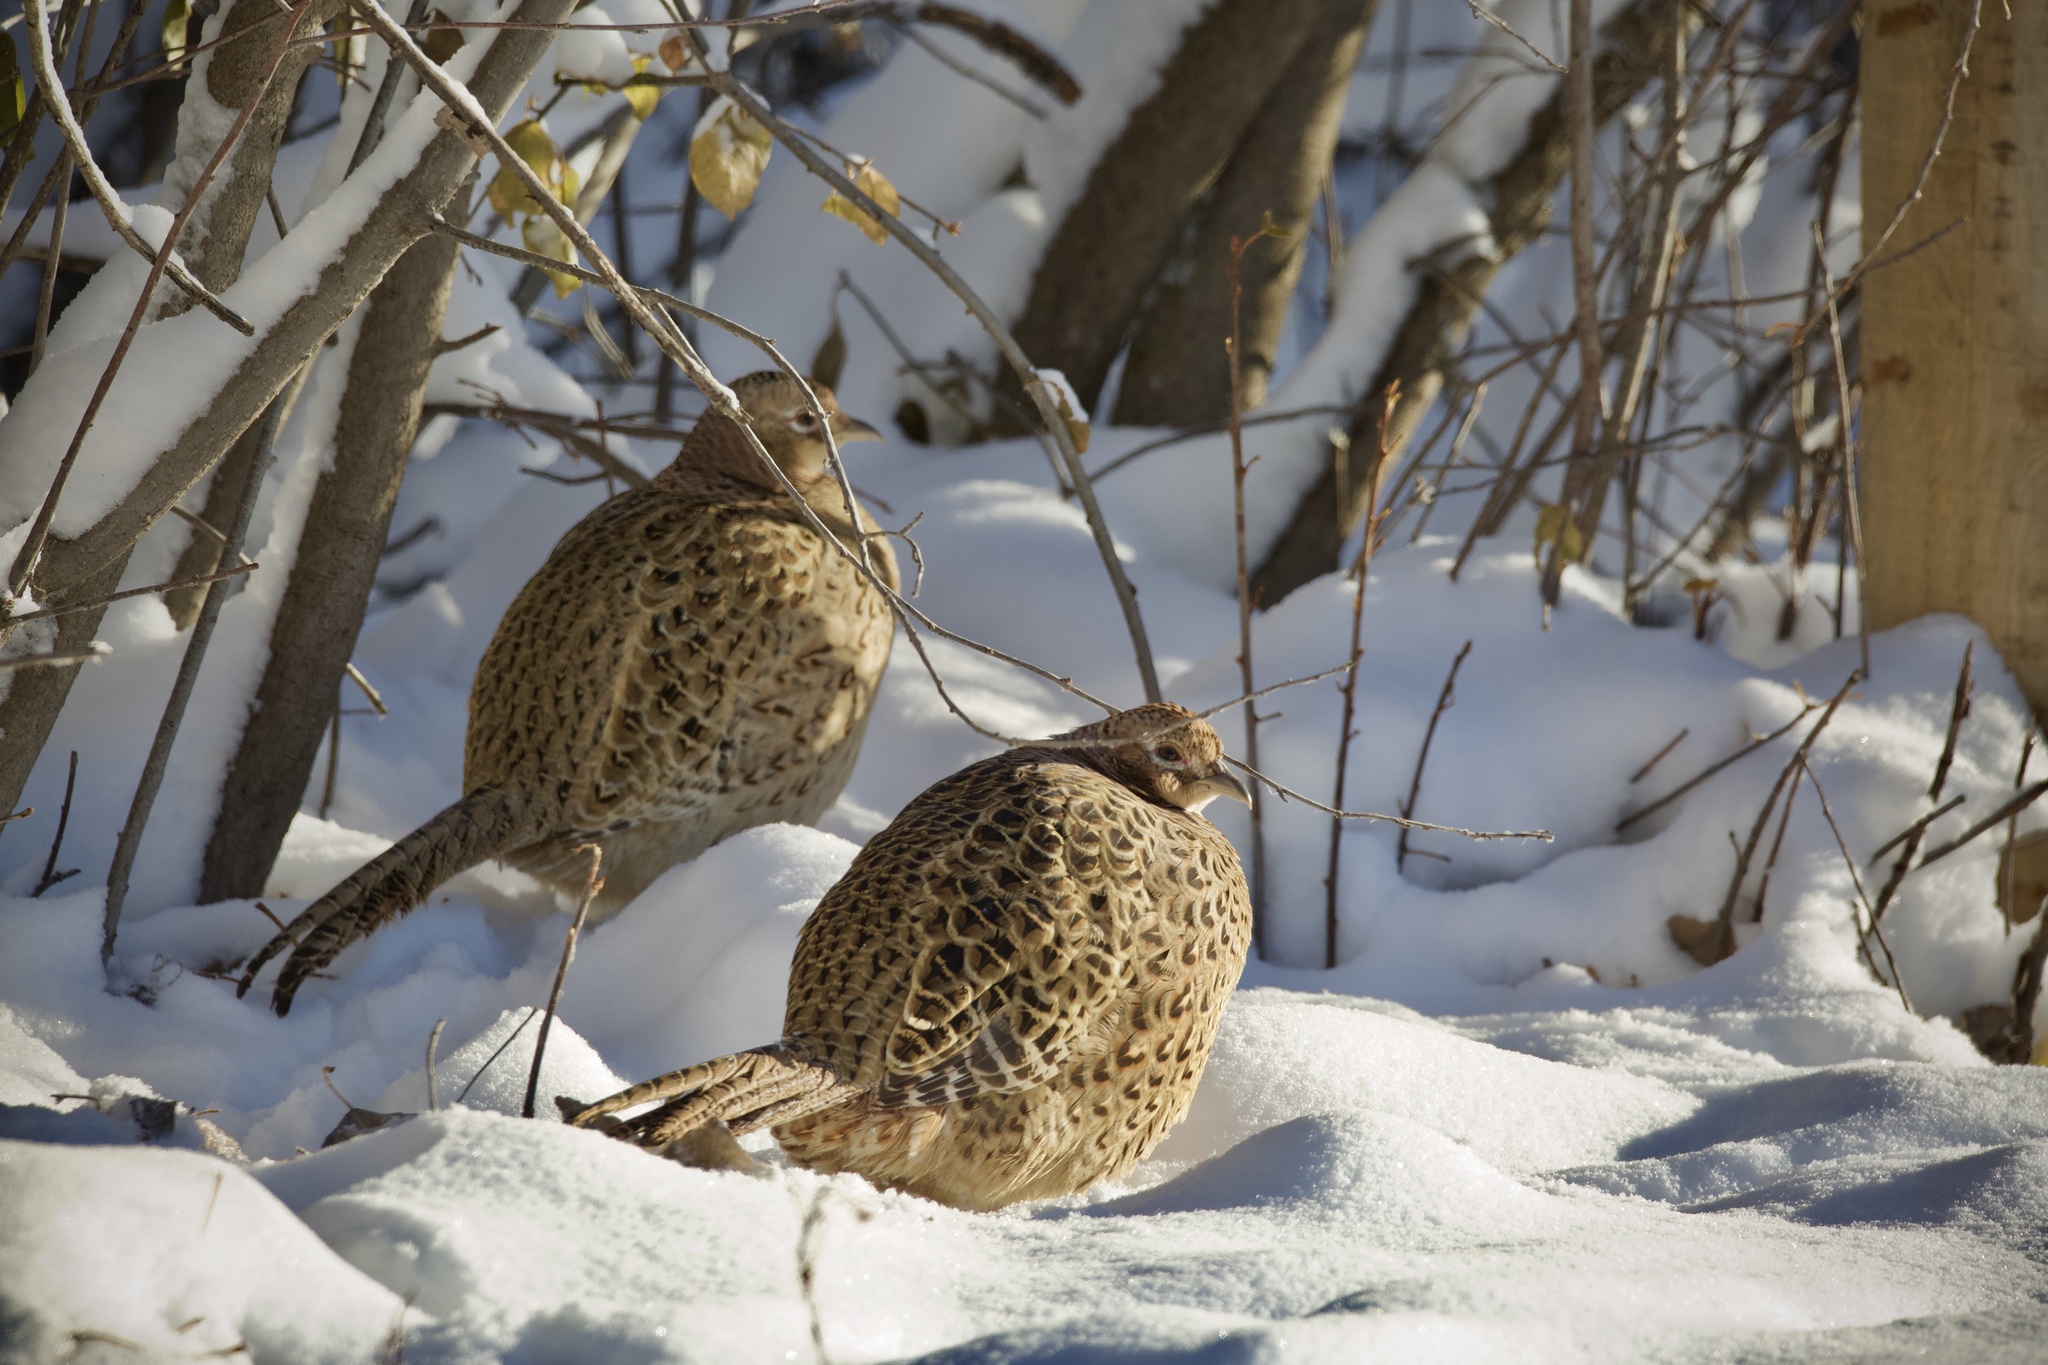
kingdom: Animalia
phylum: Chordata
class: Aves
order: Galliformes
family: Phasianidae
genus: Phasianus
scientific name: Phasianus colchicus
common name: Common pheasant
